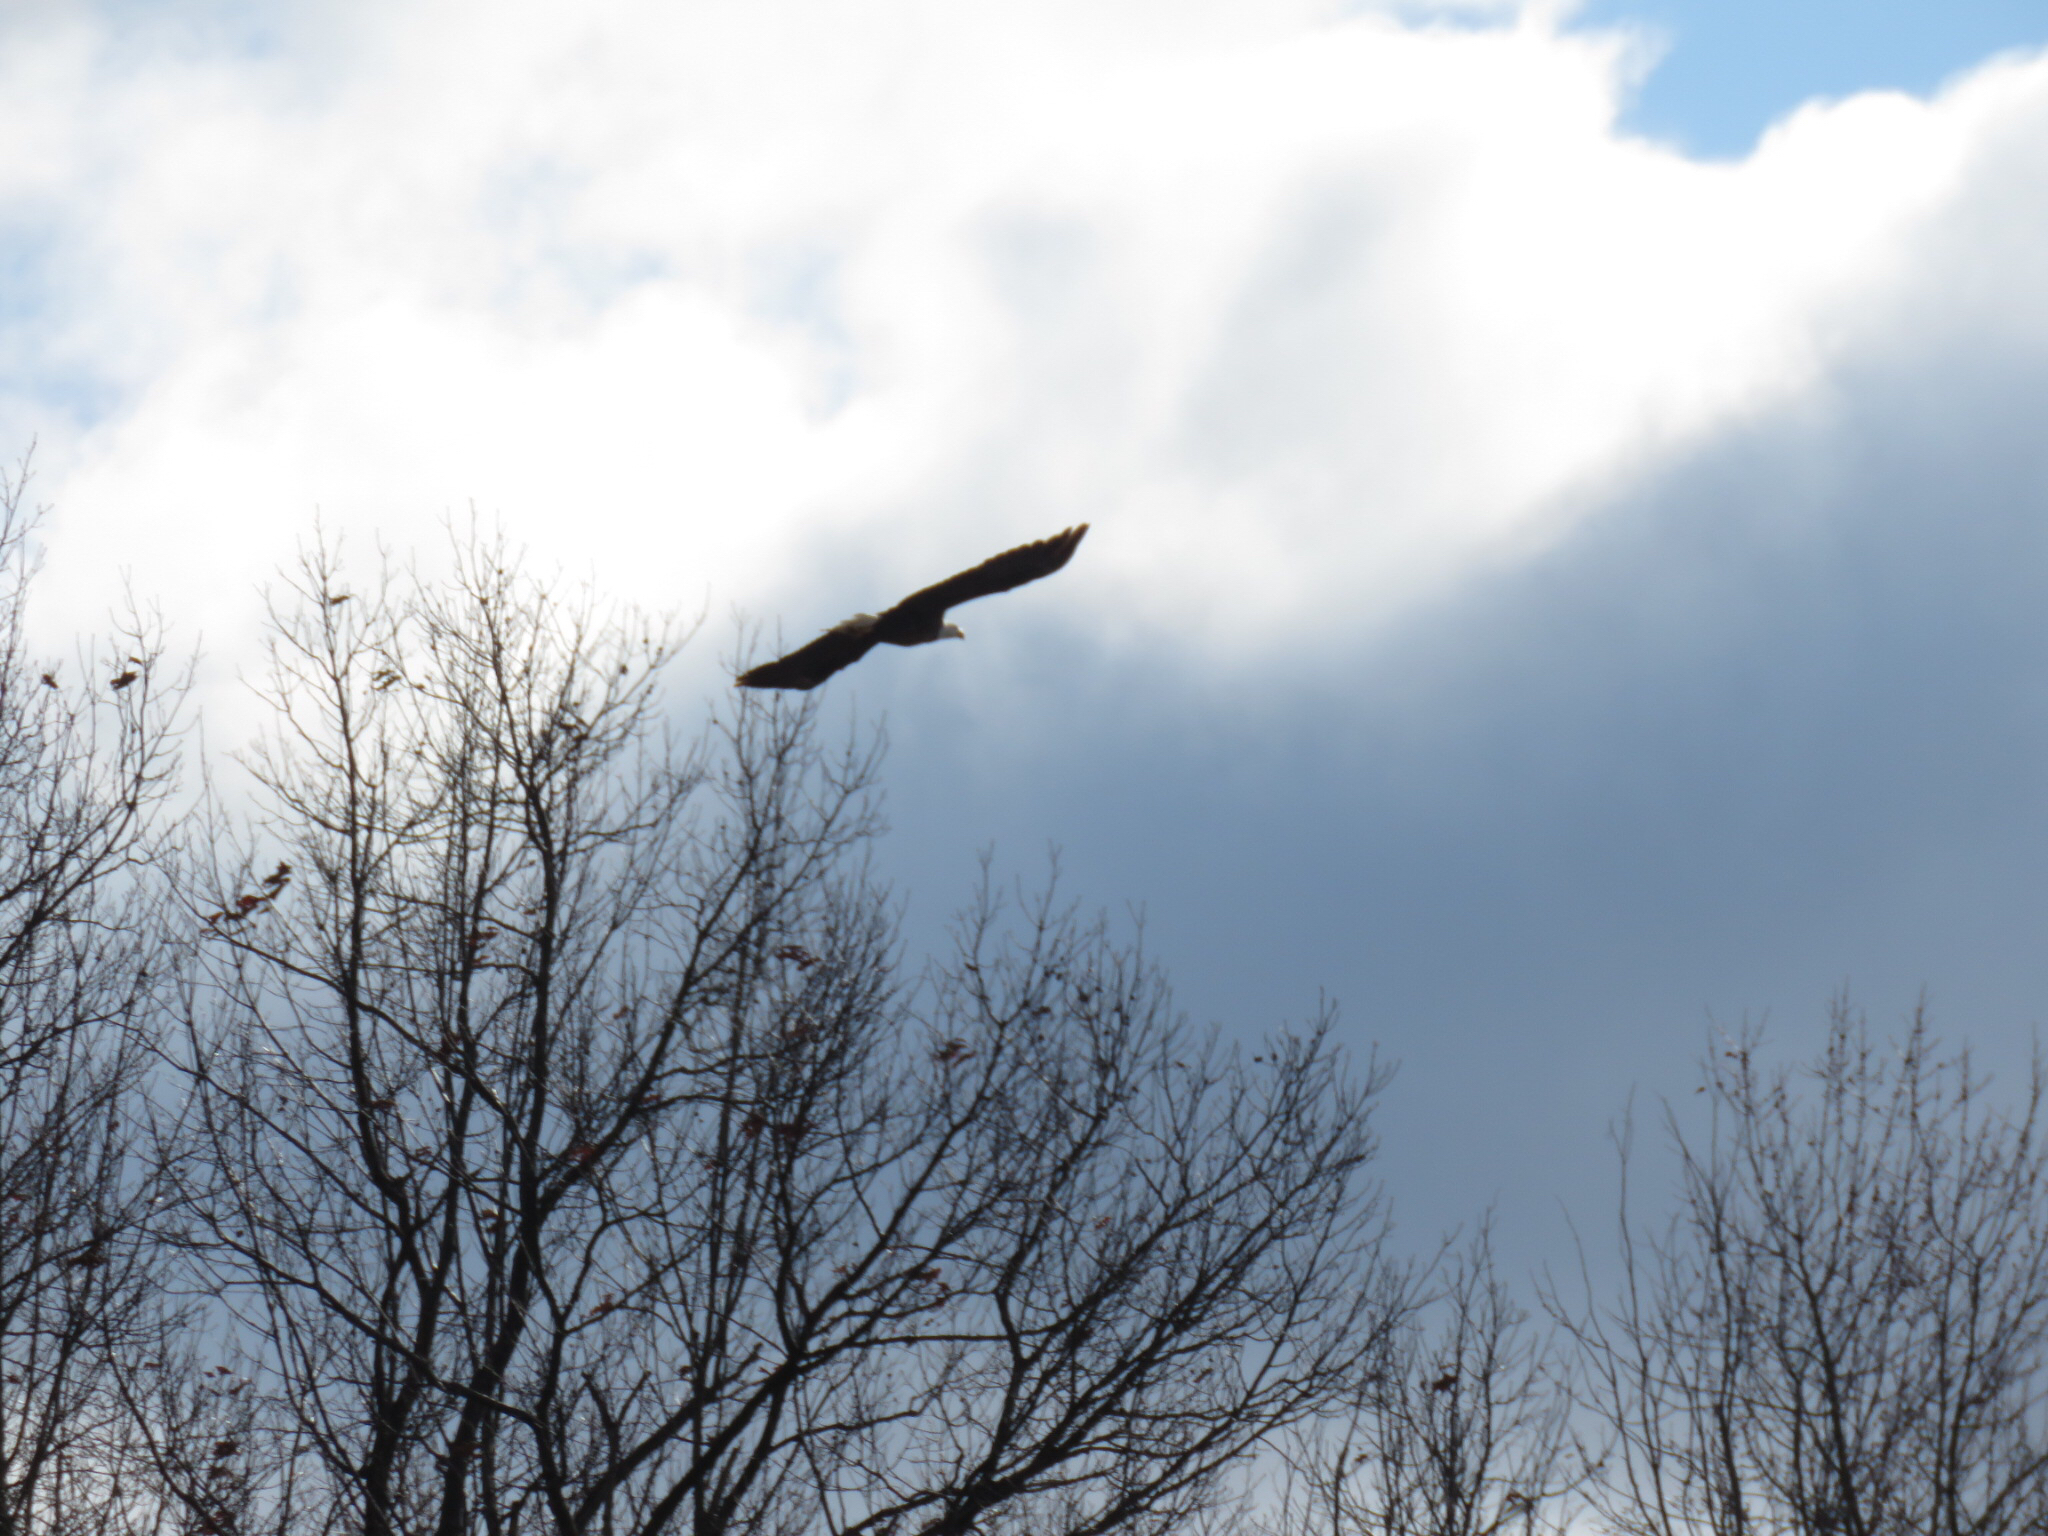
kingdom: Animalia
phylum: Chordata
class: Aves
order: Accipitriformes
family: Accipitridae
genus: Haliaeetus
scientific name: Haliaeetus leucocephalus
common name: Bald eagle
